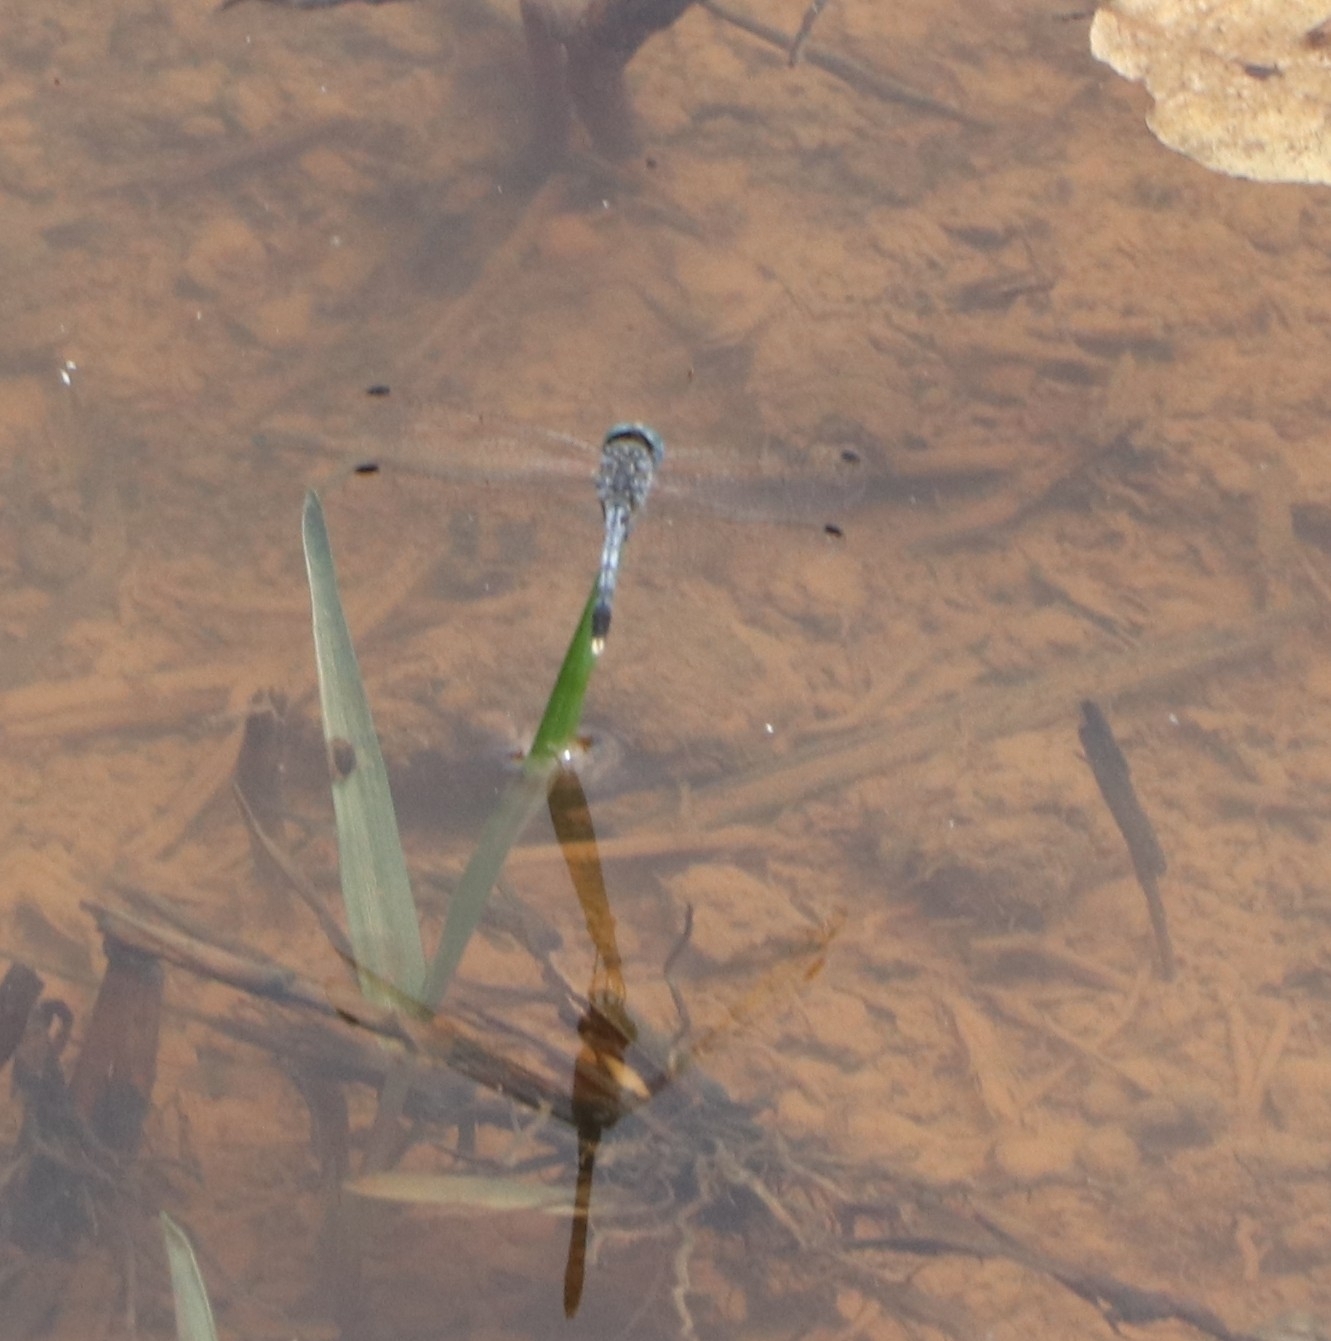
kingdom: Animalia
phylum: Arthropoda
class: Insecta
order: Odonata
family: Libellulidae
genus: Diplacodes
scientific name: Diplacodes trivialis
